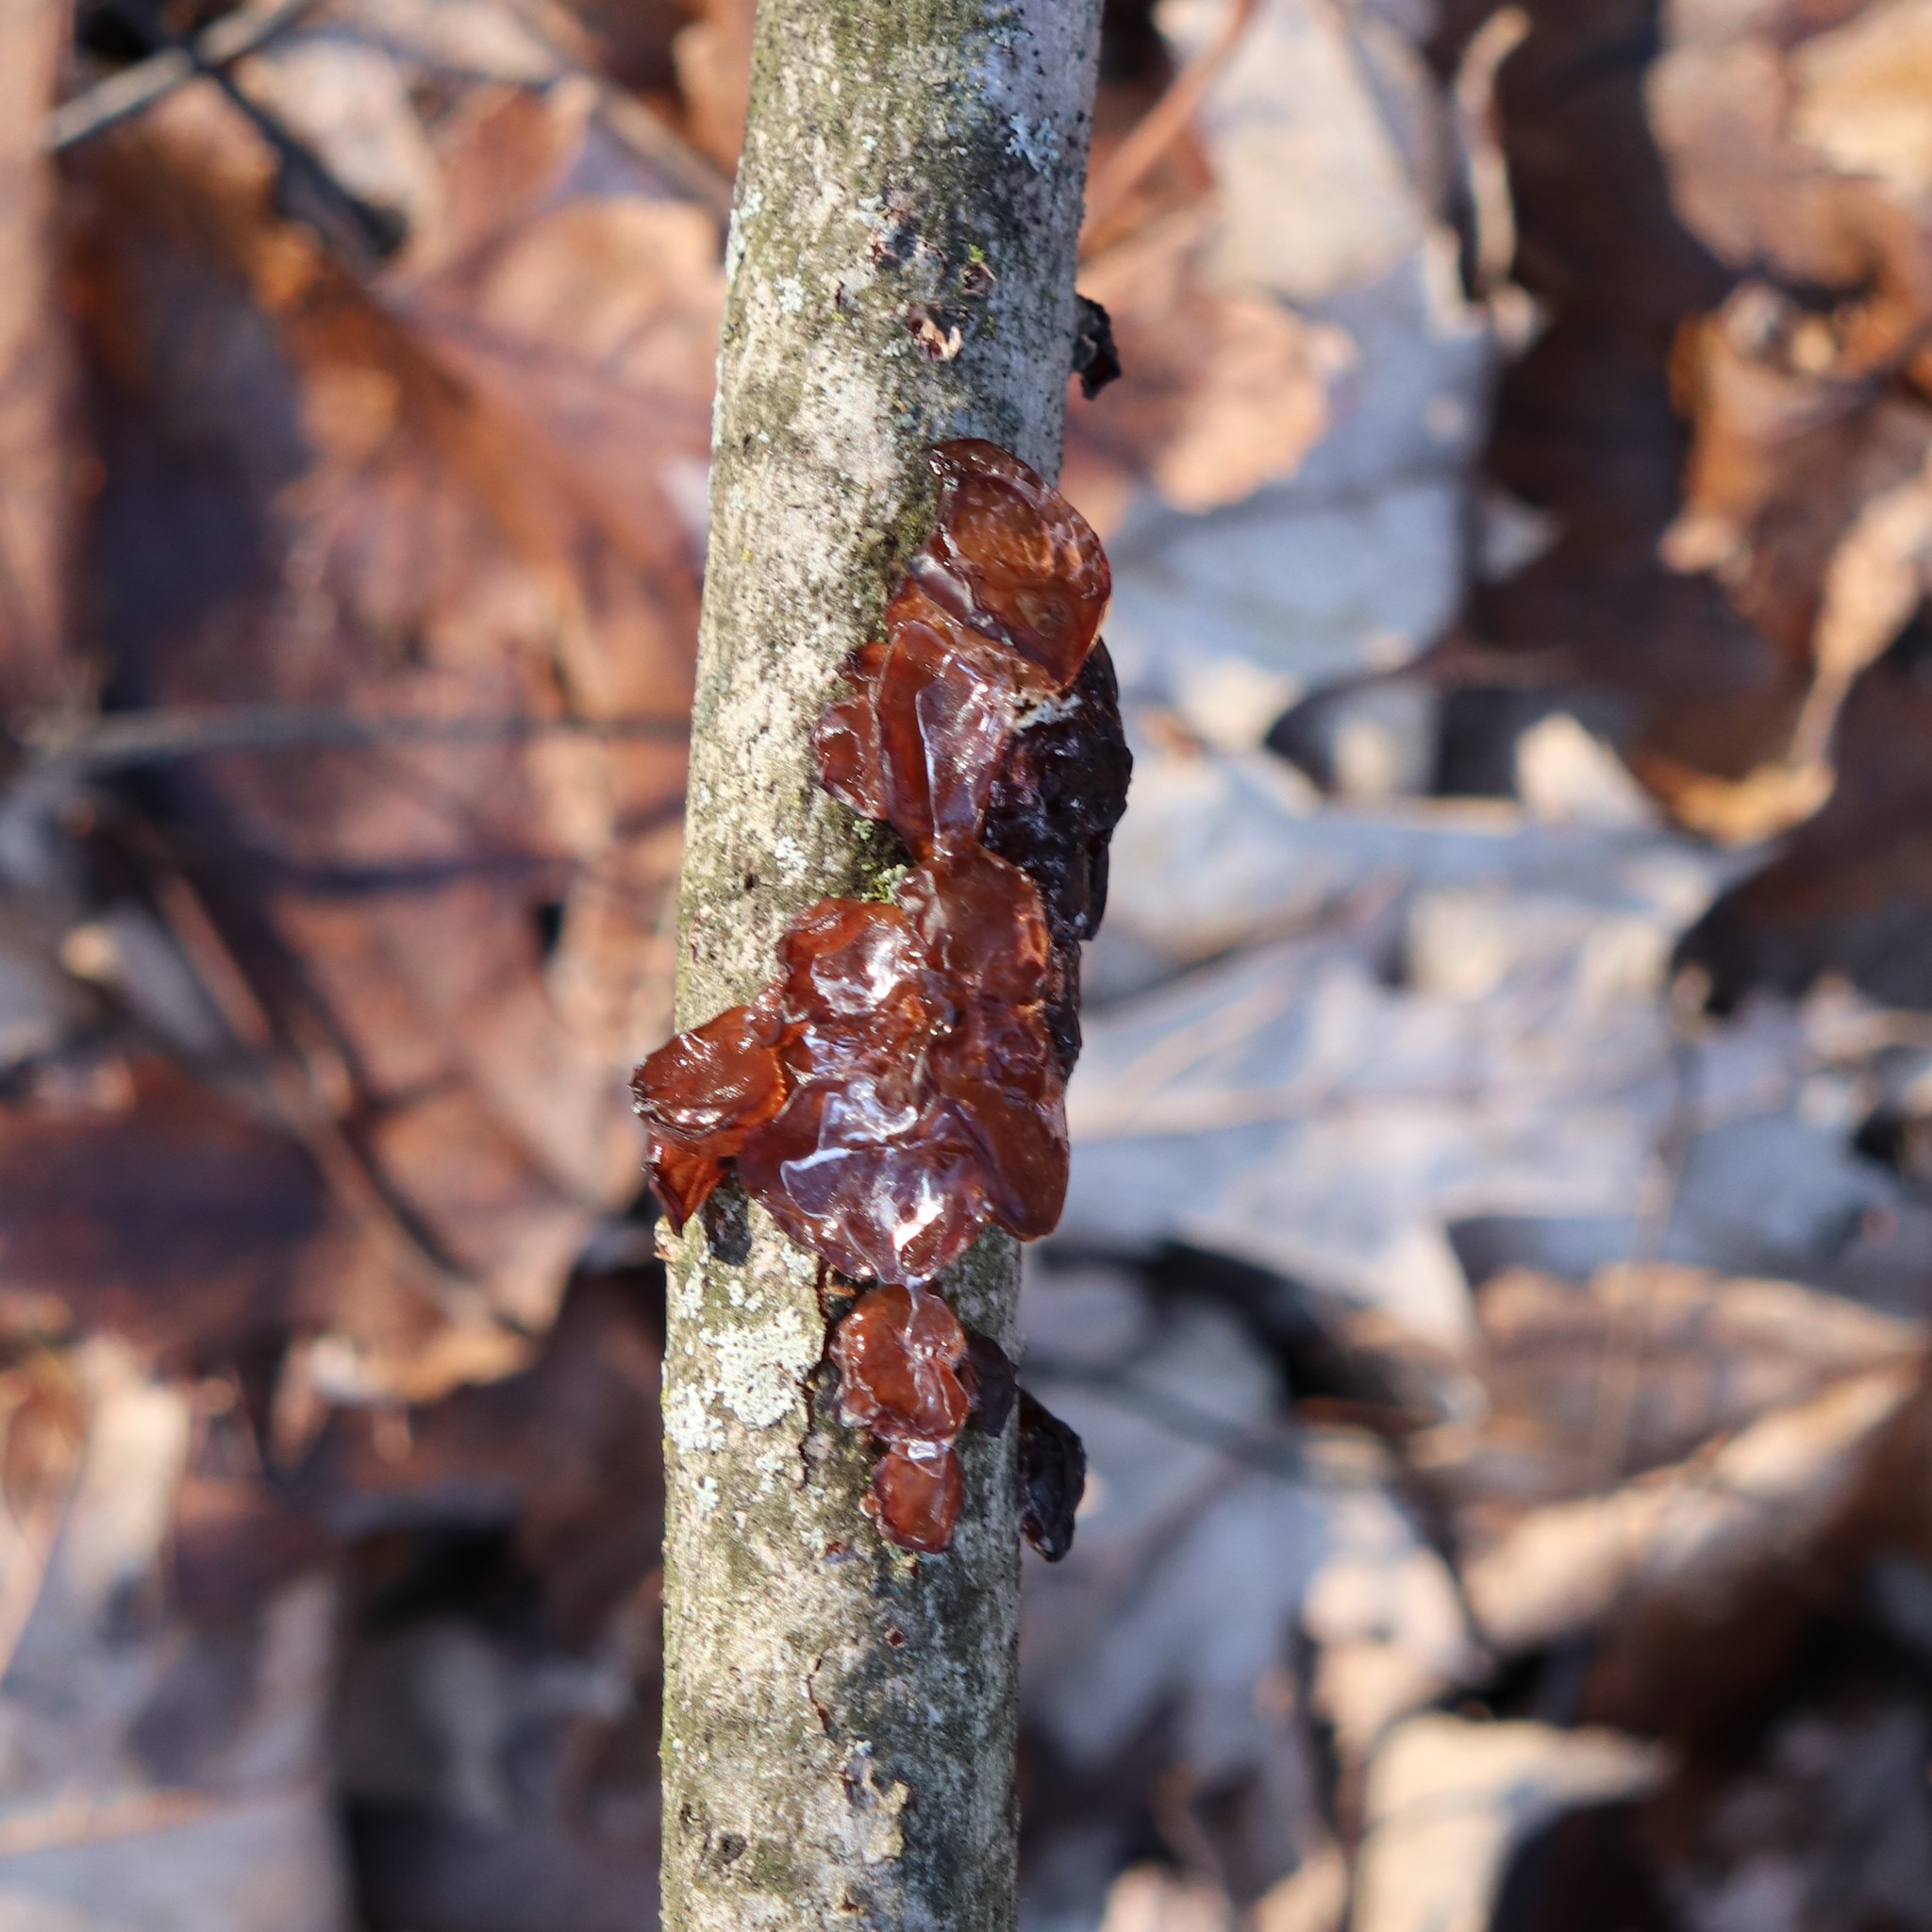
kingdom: Fungi
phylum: Basidiomycota
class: Agaricomycetes
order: Auriculariales
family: Auriculariaceae
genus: Exidia
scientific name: Exidia recisa
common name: Amber jelly
